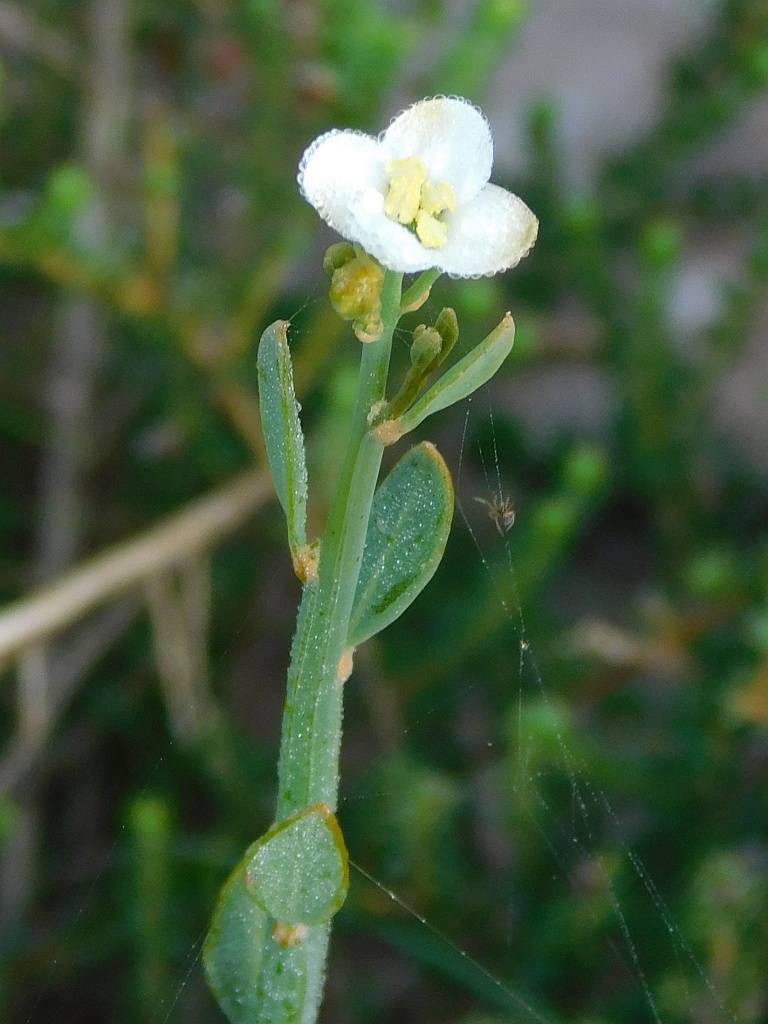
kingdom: Plantae
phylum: Tracheophyta
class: Magnoliopsida
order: Solanales
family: Montiniaceae
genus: Montinia
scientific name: Montinia caryophyllacea
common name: Wild clove-bush
